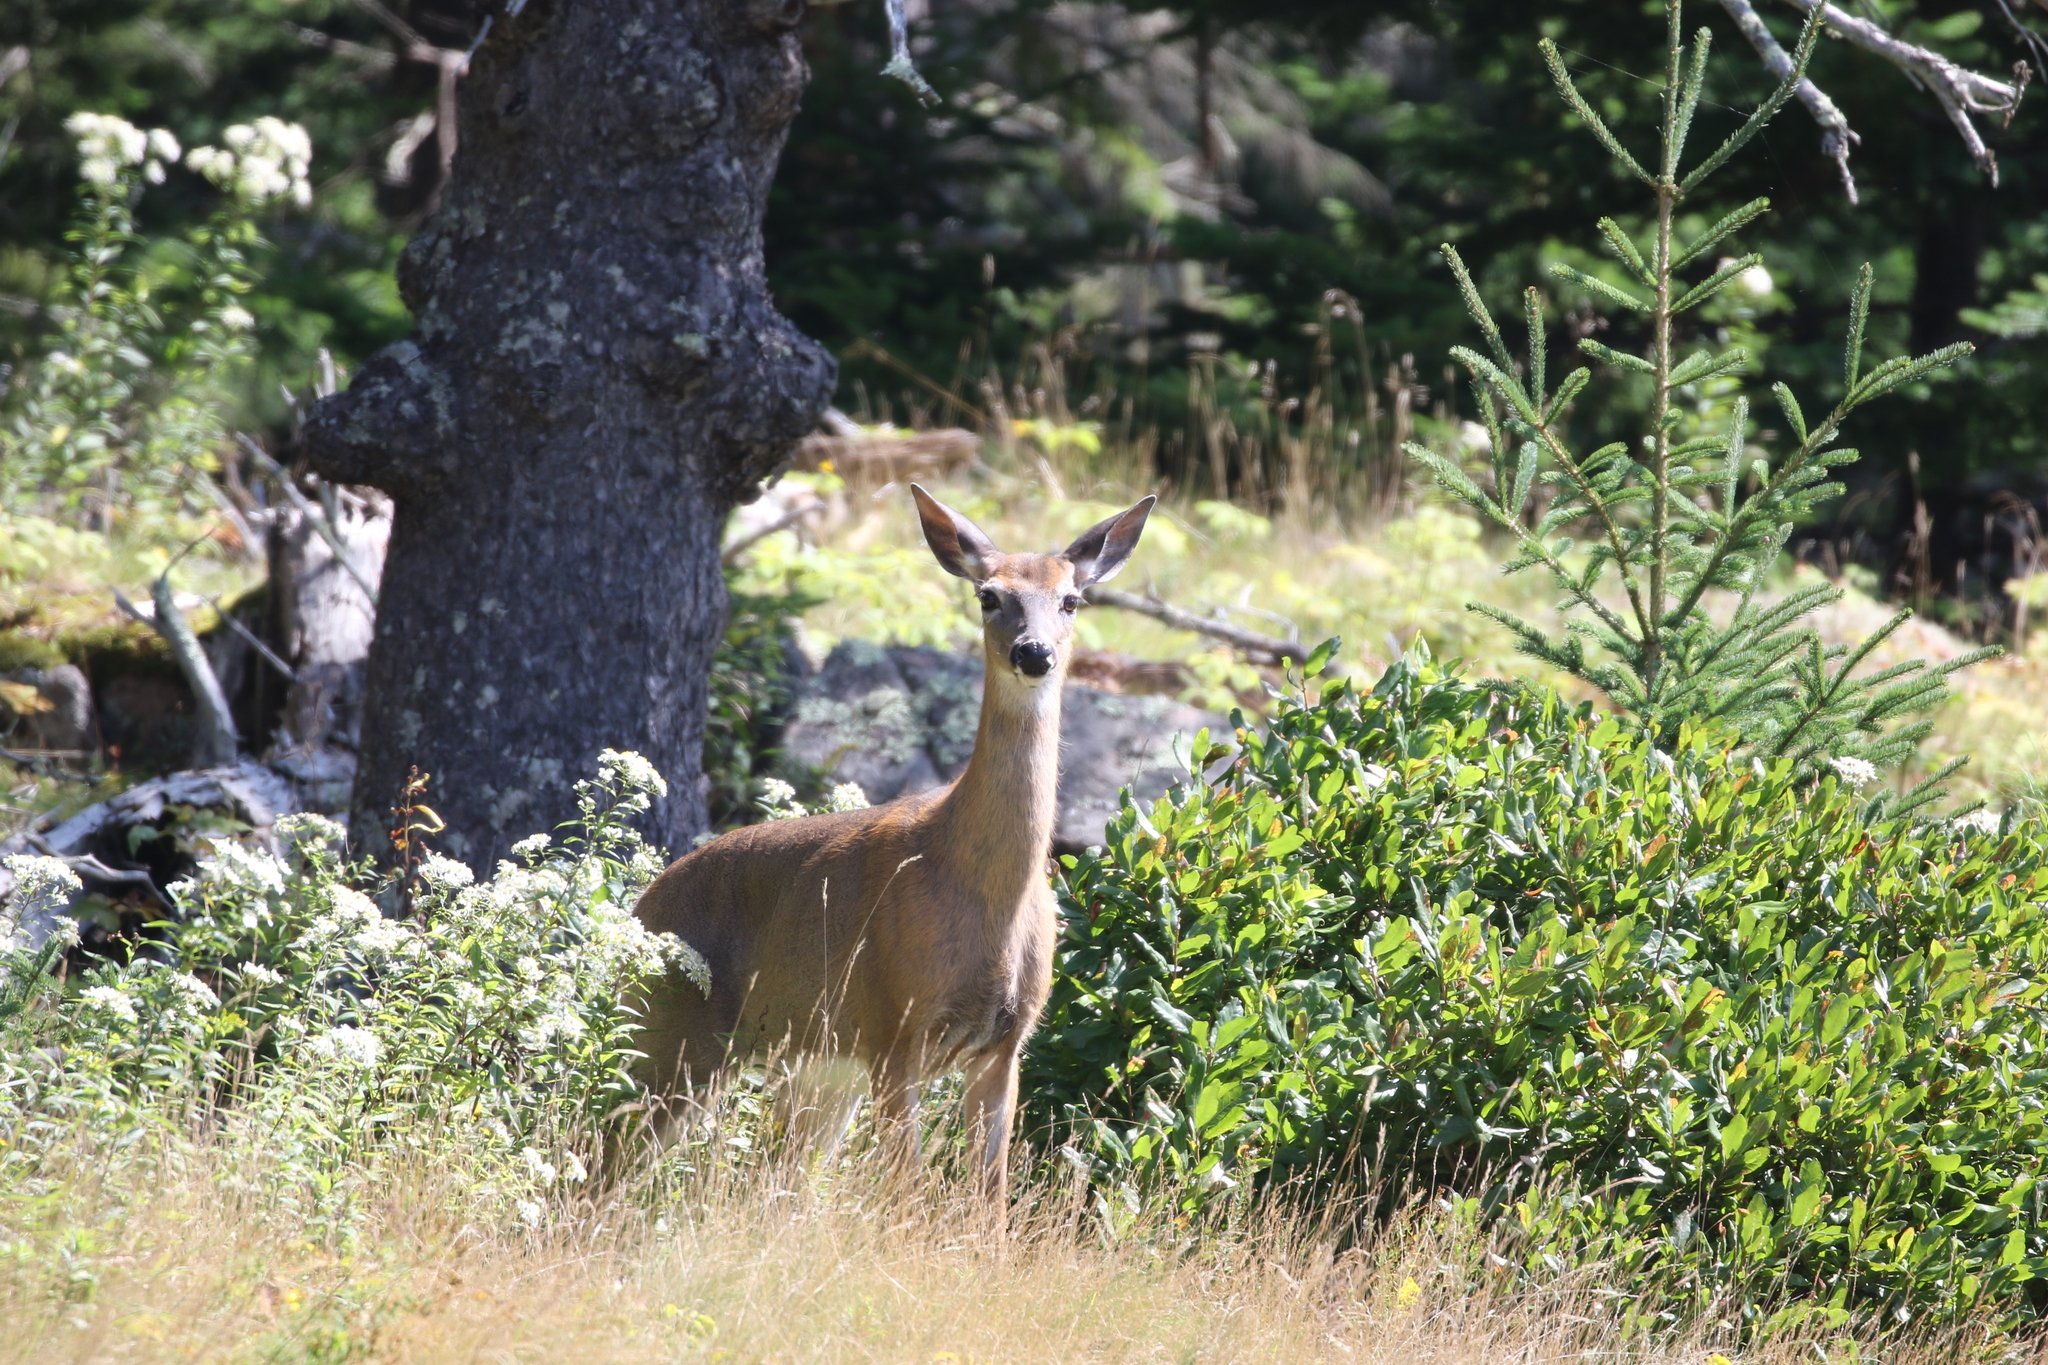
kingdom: Animalia
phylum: Chordata
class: Mammalia
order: Artiodactyla
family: Cervidae
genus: Odocoileus
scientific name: Odocoileus virginianus
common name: White-tailed deer
